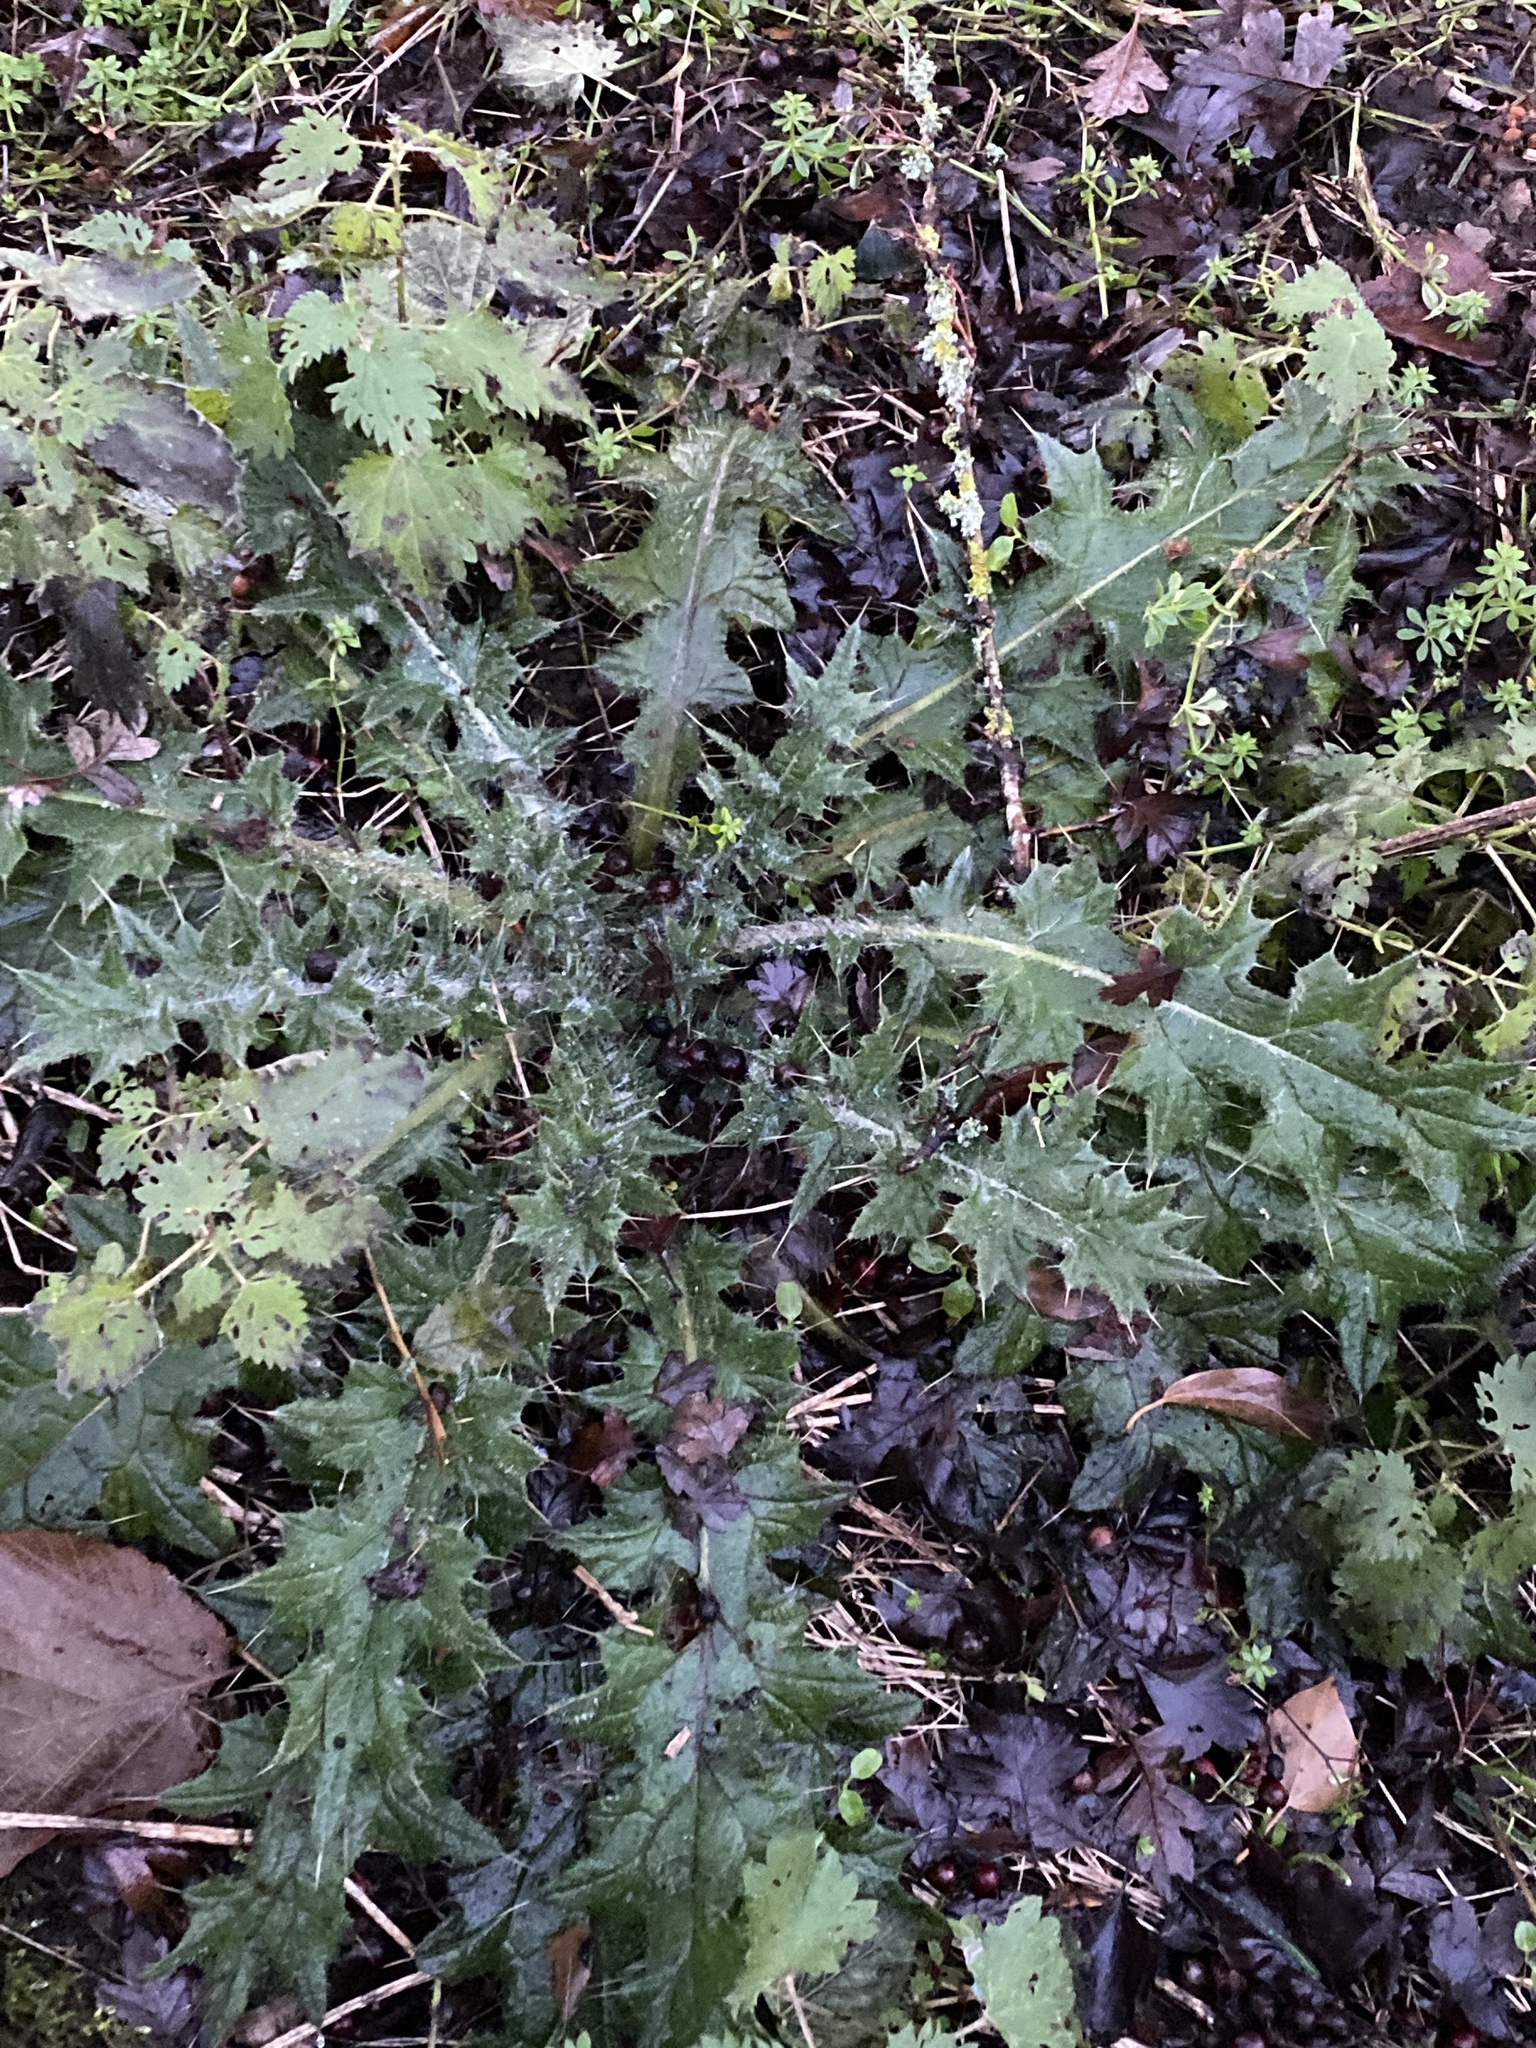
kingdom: Plantae
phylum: Tracheophyta
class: Magnoliopsida
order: Asterales
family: Asteraceae
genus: Cirsium
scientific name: Cirsium vulgare
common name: Bull thistle
